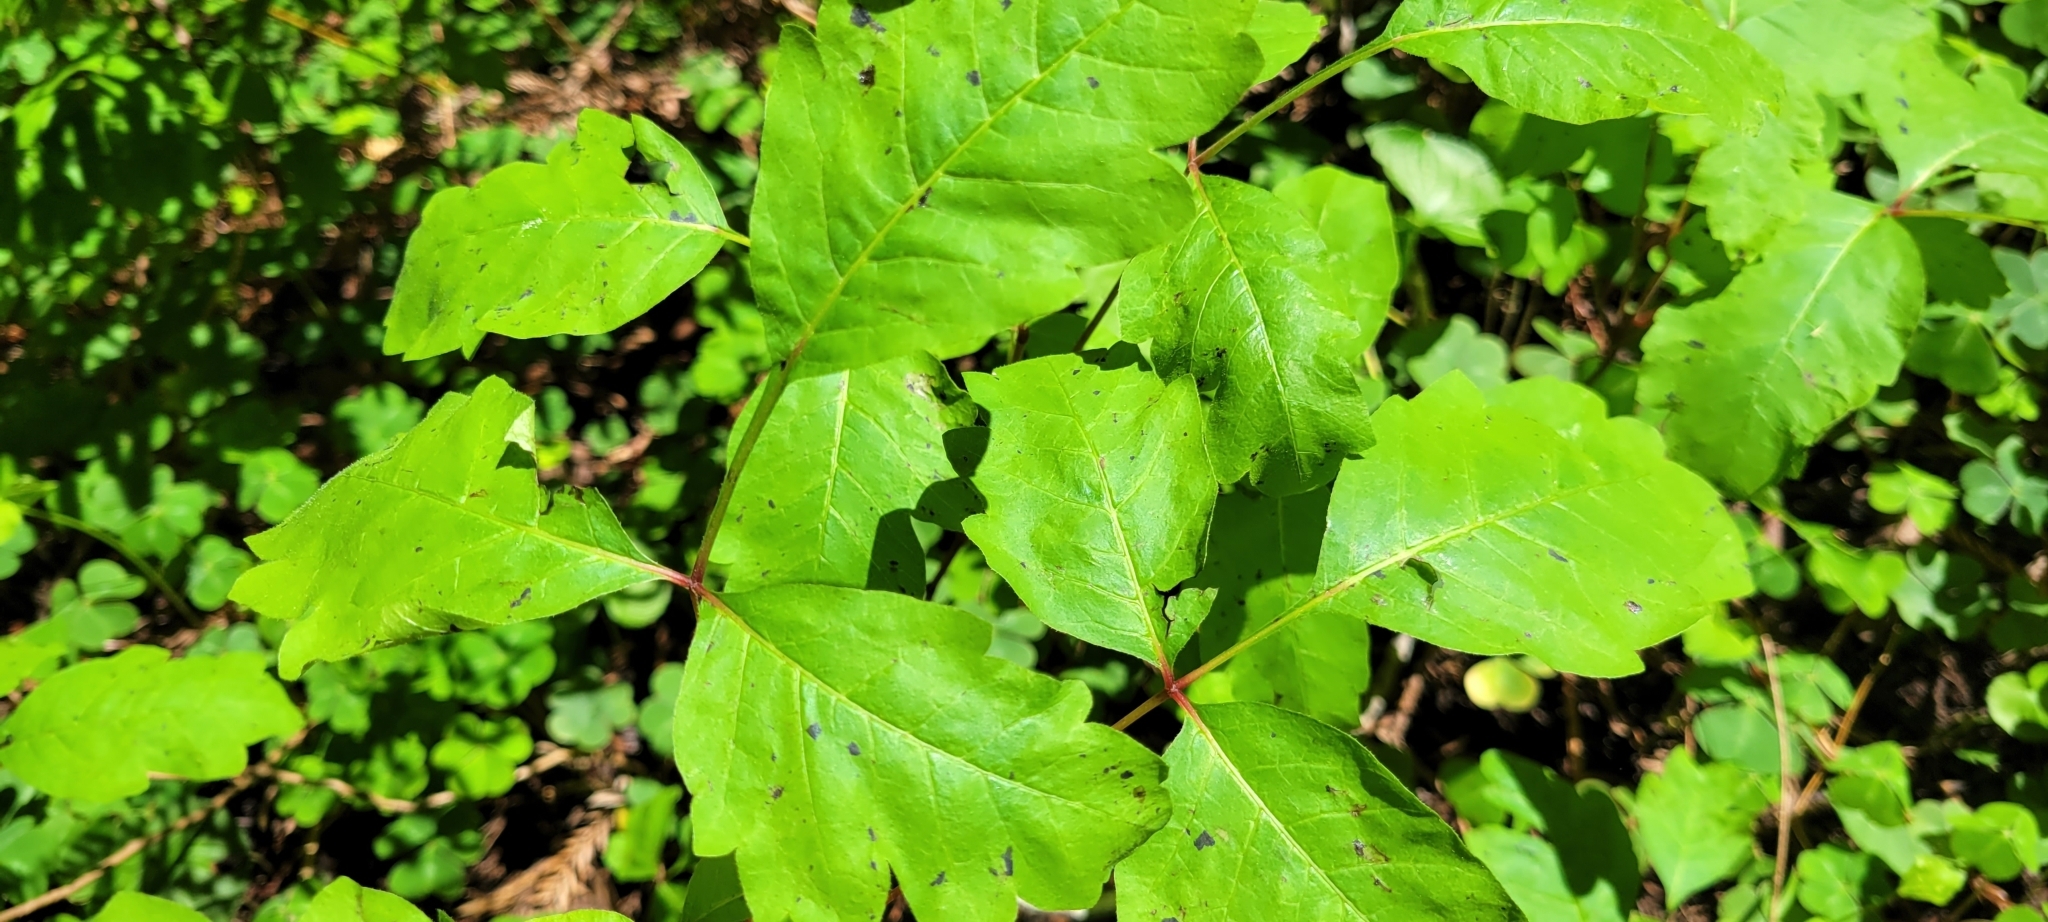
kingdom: Plantae
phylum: Tracheophyta
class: Magnoliopsida
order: Sapindales
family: Anacardiaceae
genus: Toxicodendron
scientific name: Toxicodendron diversilobum
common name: Pacific poison-oak
